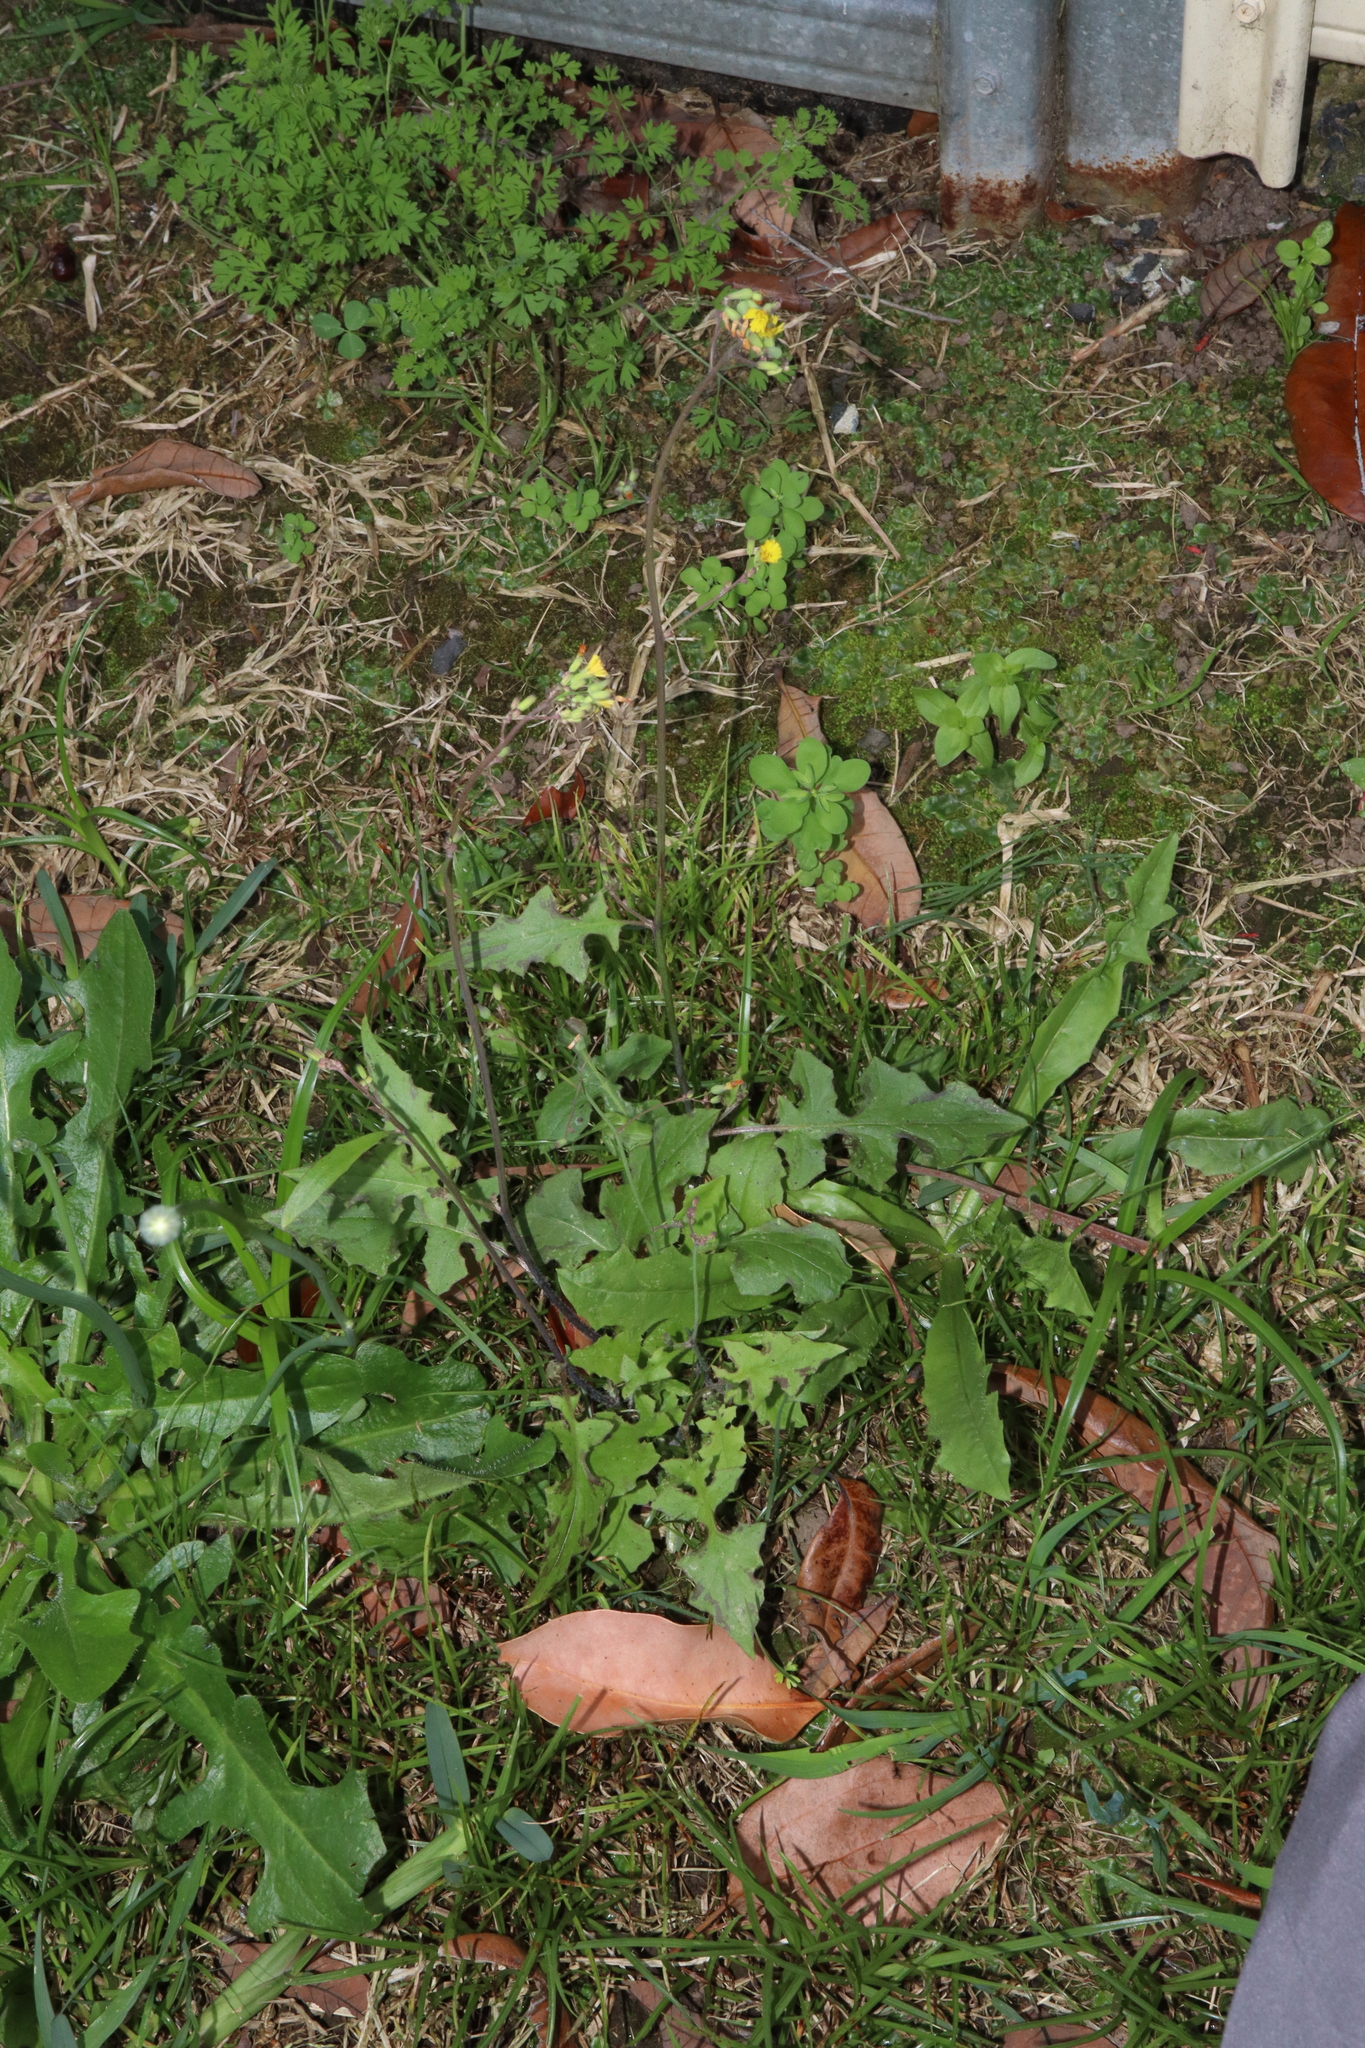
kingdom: Plantae
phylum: Tracheophyta
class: Magnoliopsida
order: Asterales
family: Asteraceae
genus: Youngia
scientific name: Youngia japonica
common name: Oriental false hawksbeard
